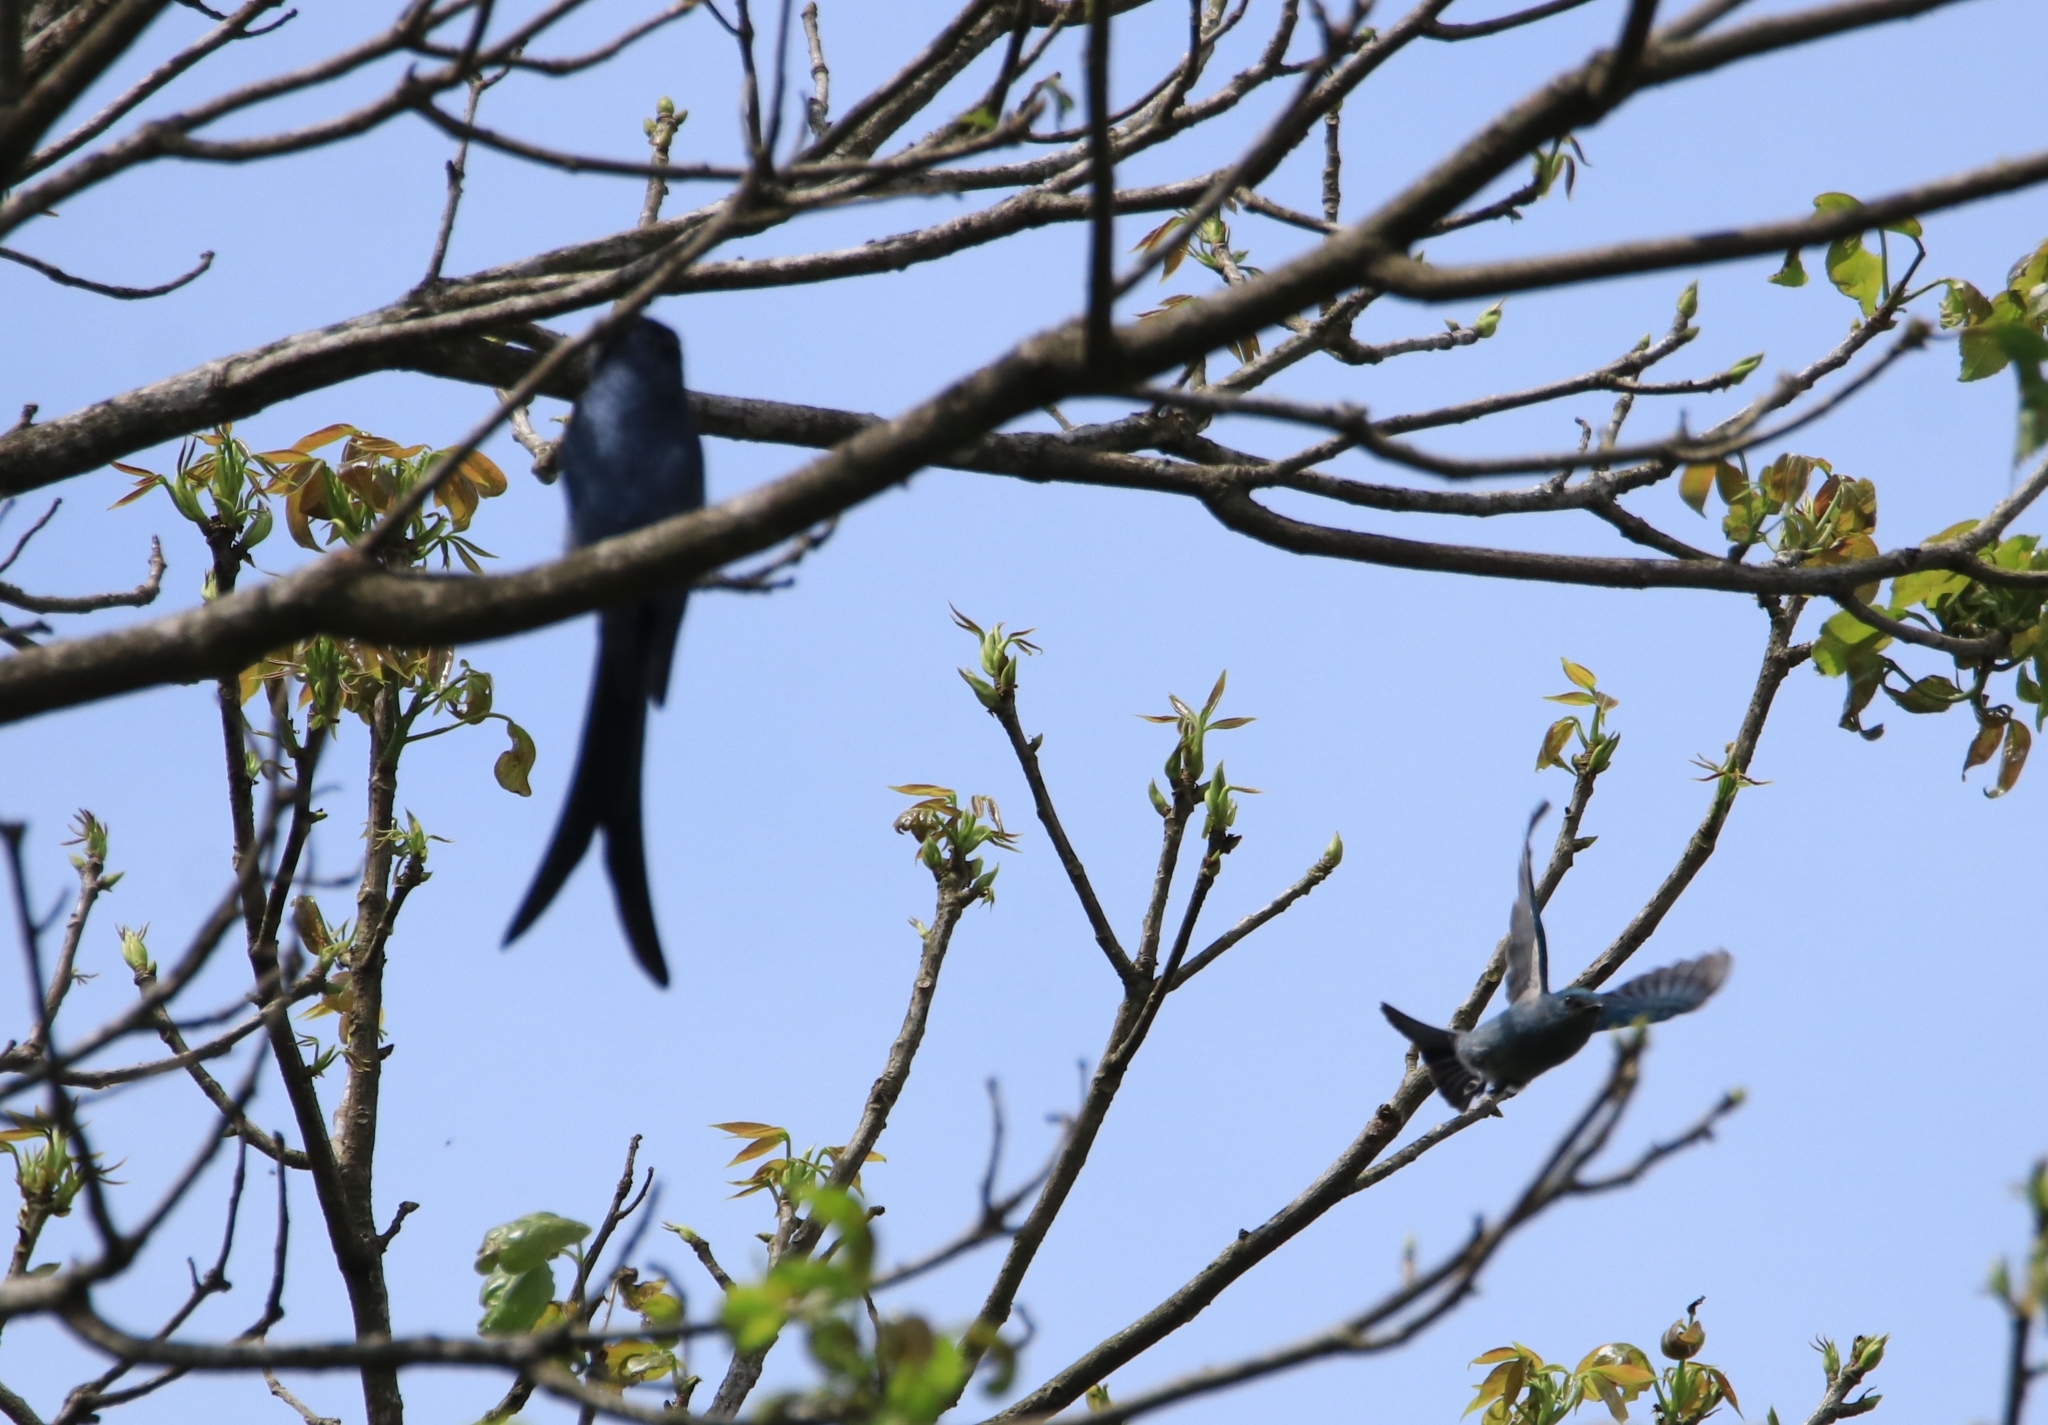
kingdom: Animalia
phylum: Chordata
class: Aves
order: Passeriformes
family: Dicruridae
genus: Dicrurus
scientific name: Dicrurus leucophaeus
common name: Ashy drongo
